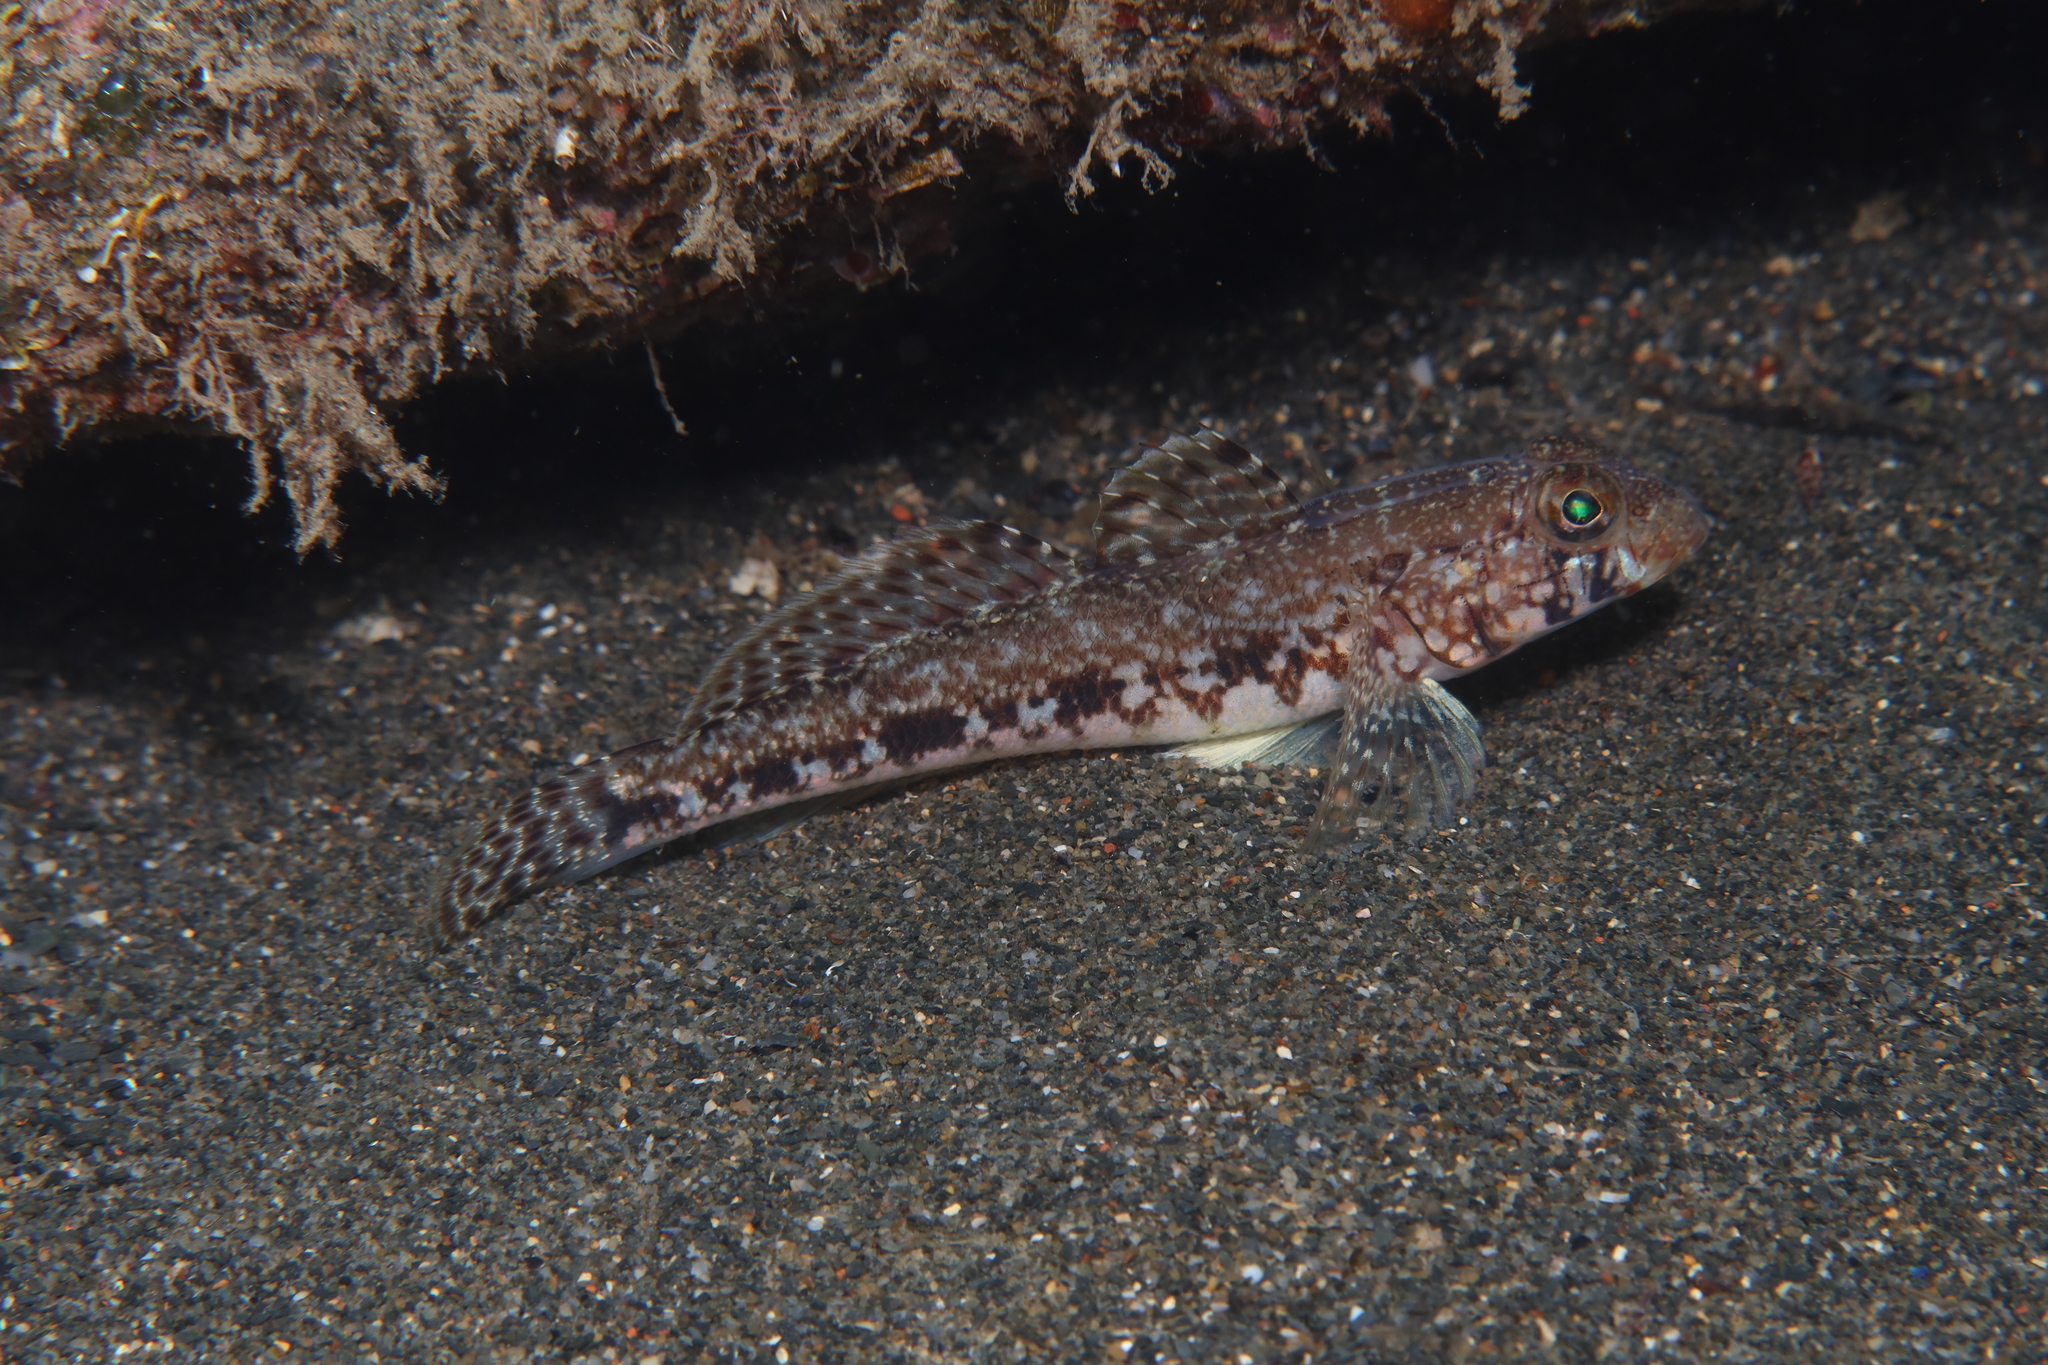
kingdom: Animalia
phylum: Chordata
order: Perciformes
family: Gobiidae
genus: Gobius
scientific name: Gobius geniporus
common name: Slender goby
